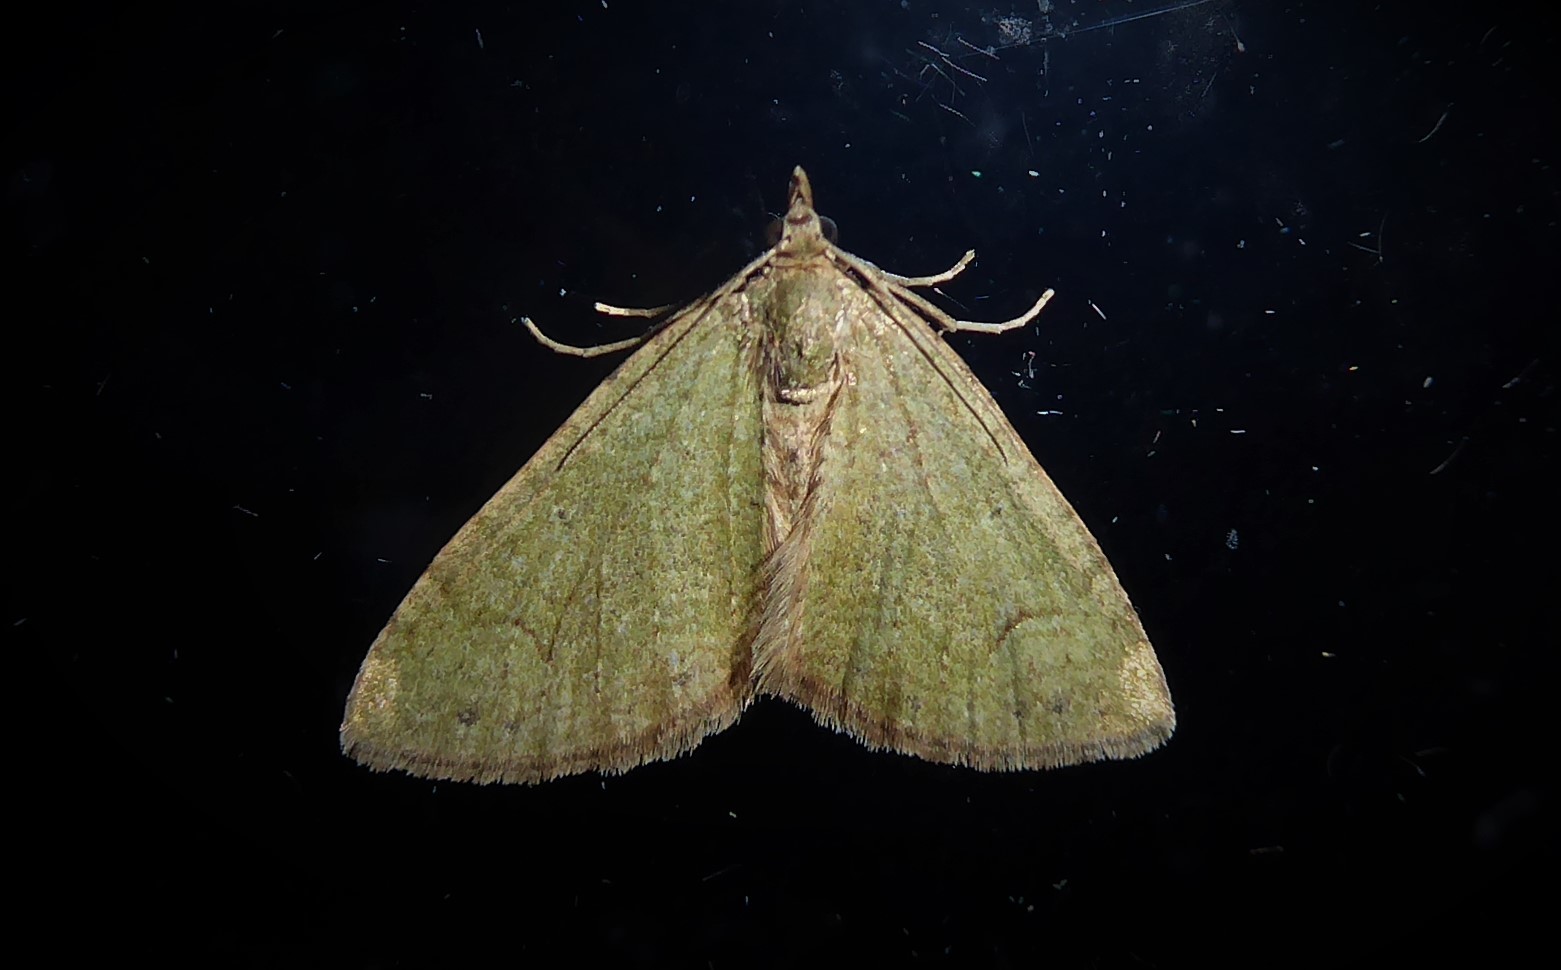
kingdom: Animalia
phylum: Arthropoda
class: Insecta
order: Lepidoptera
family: Geometridae
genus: Epyaxa
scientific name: Epyaxa rosearia
